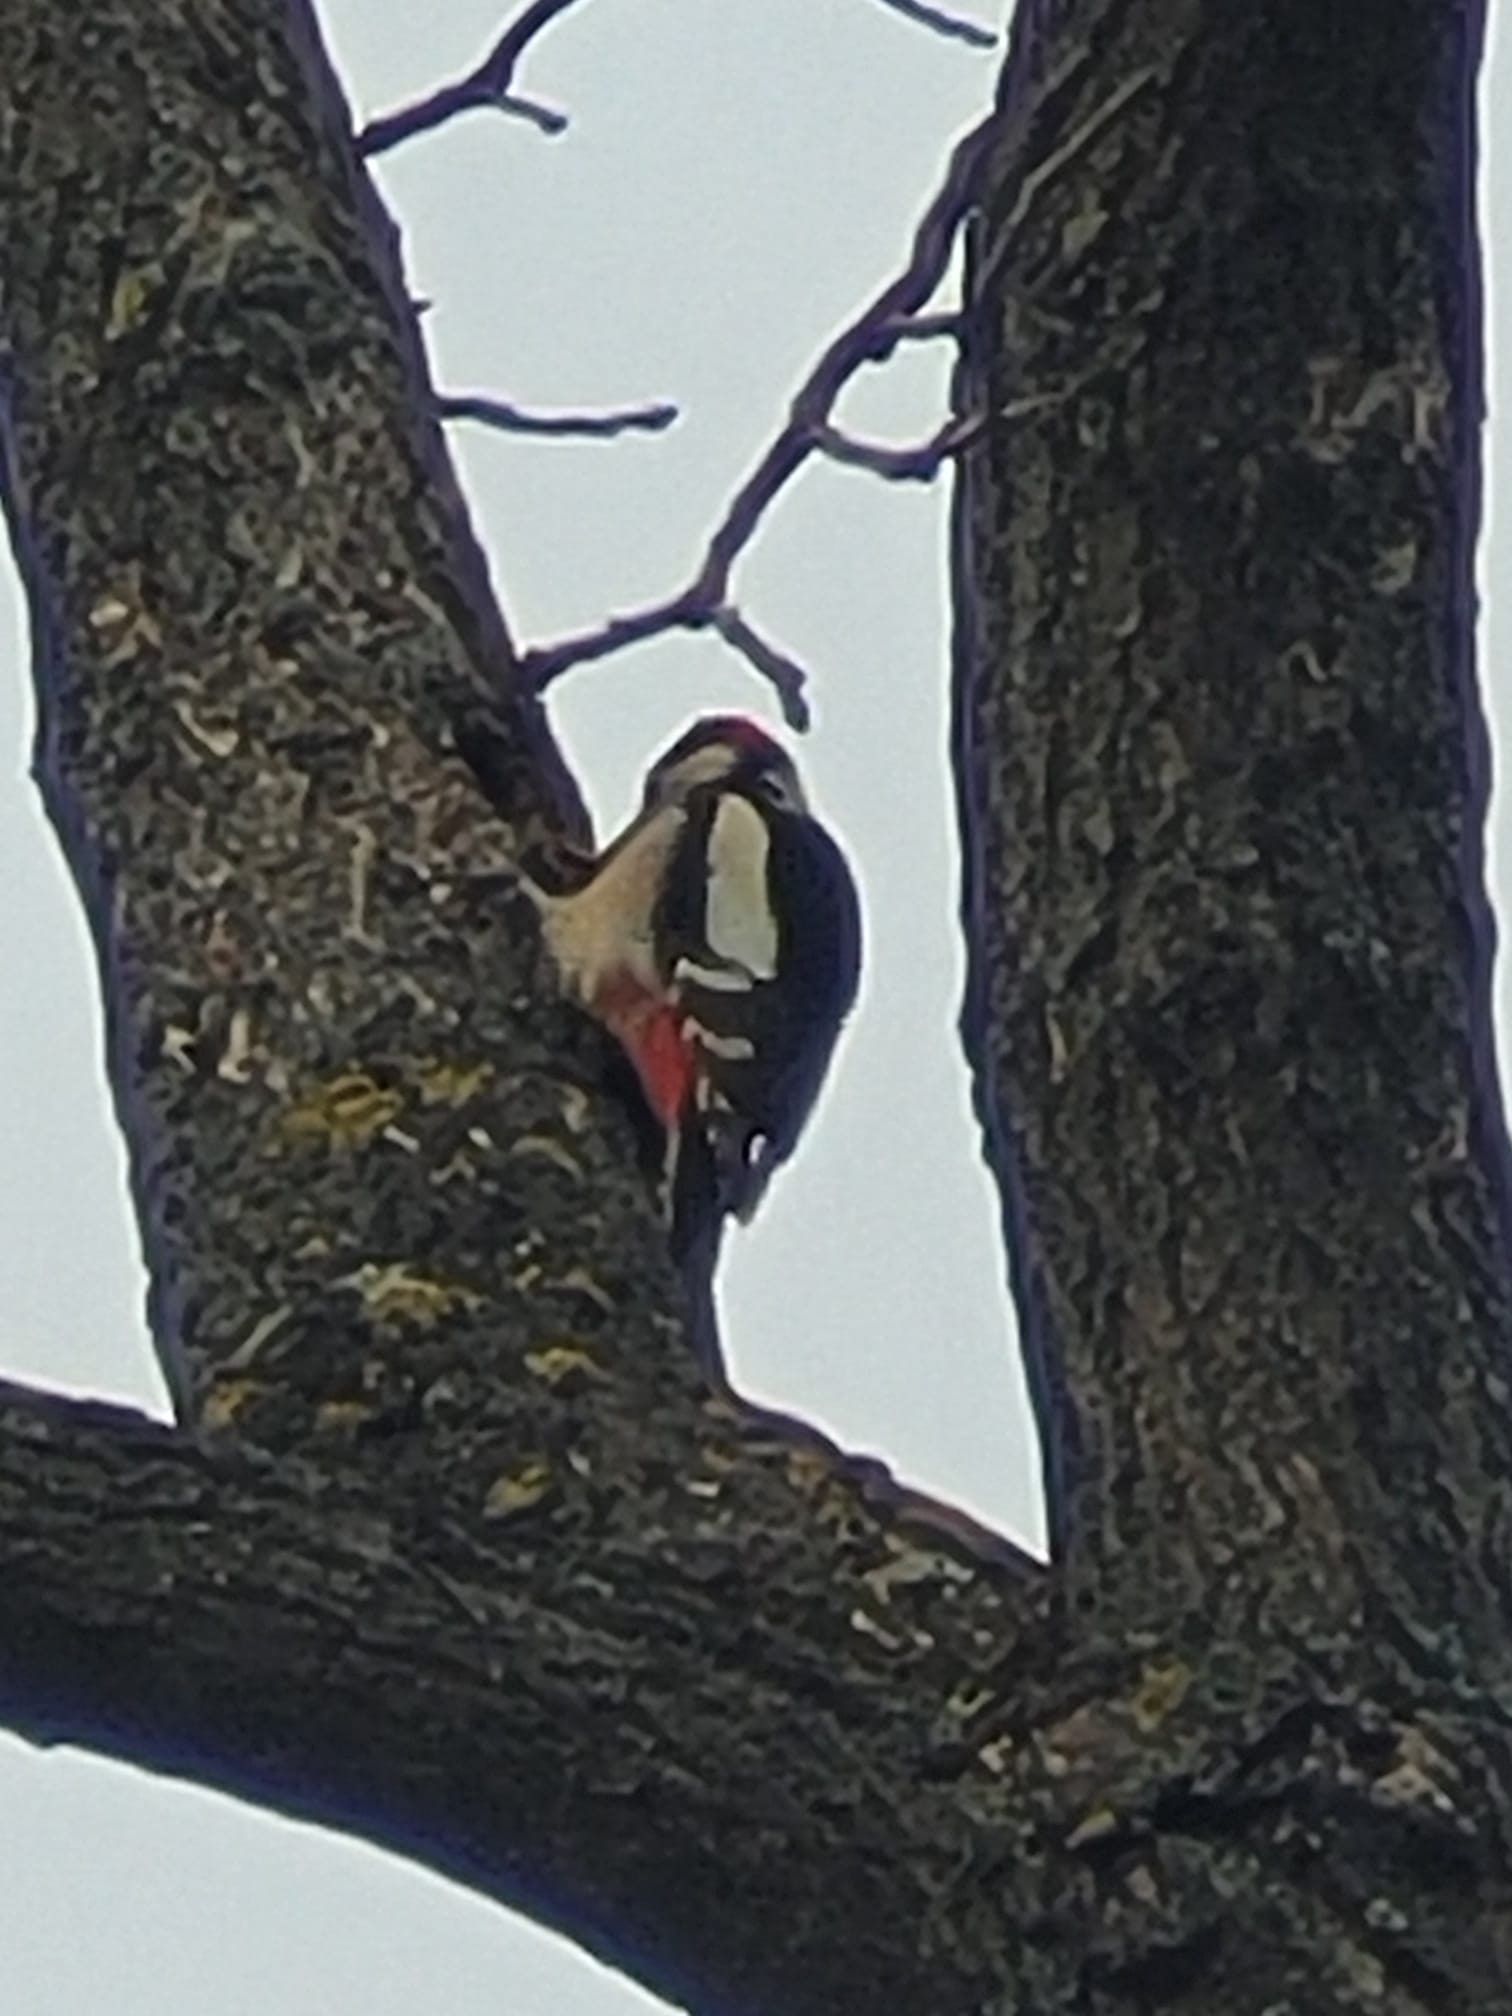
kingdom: Animalia
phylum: Chordata
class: Aves
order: Piciformes
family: Picidae
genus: Dendrocopos
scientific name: Dendrocopos major
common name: Great spotted woodpecker
